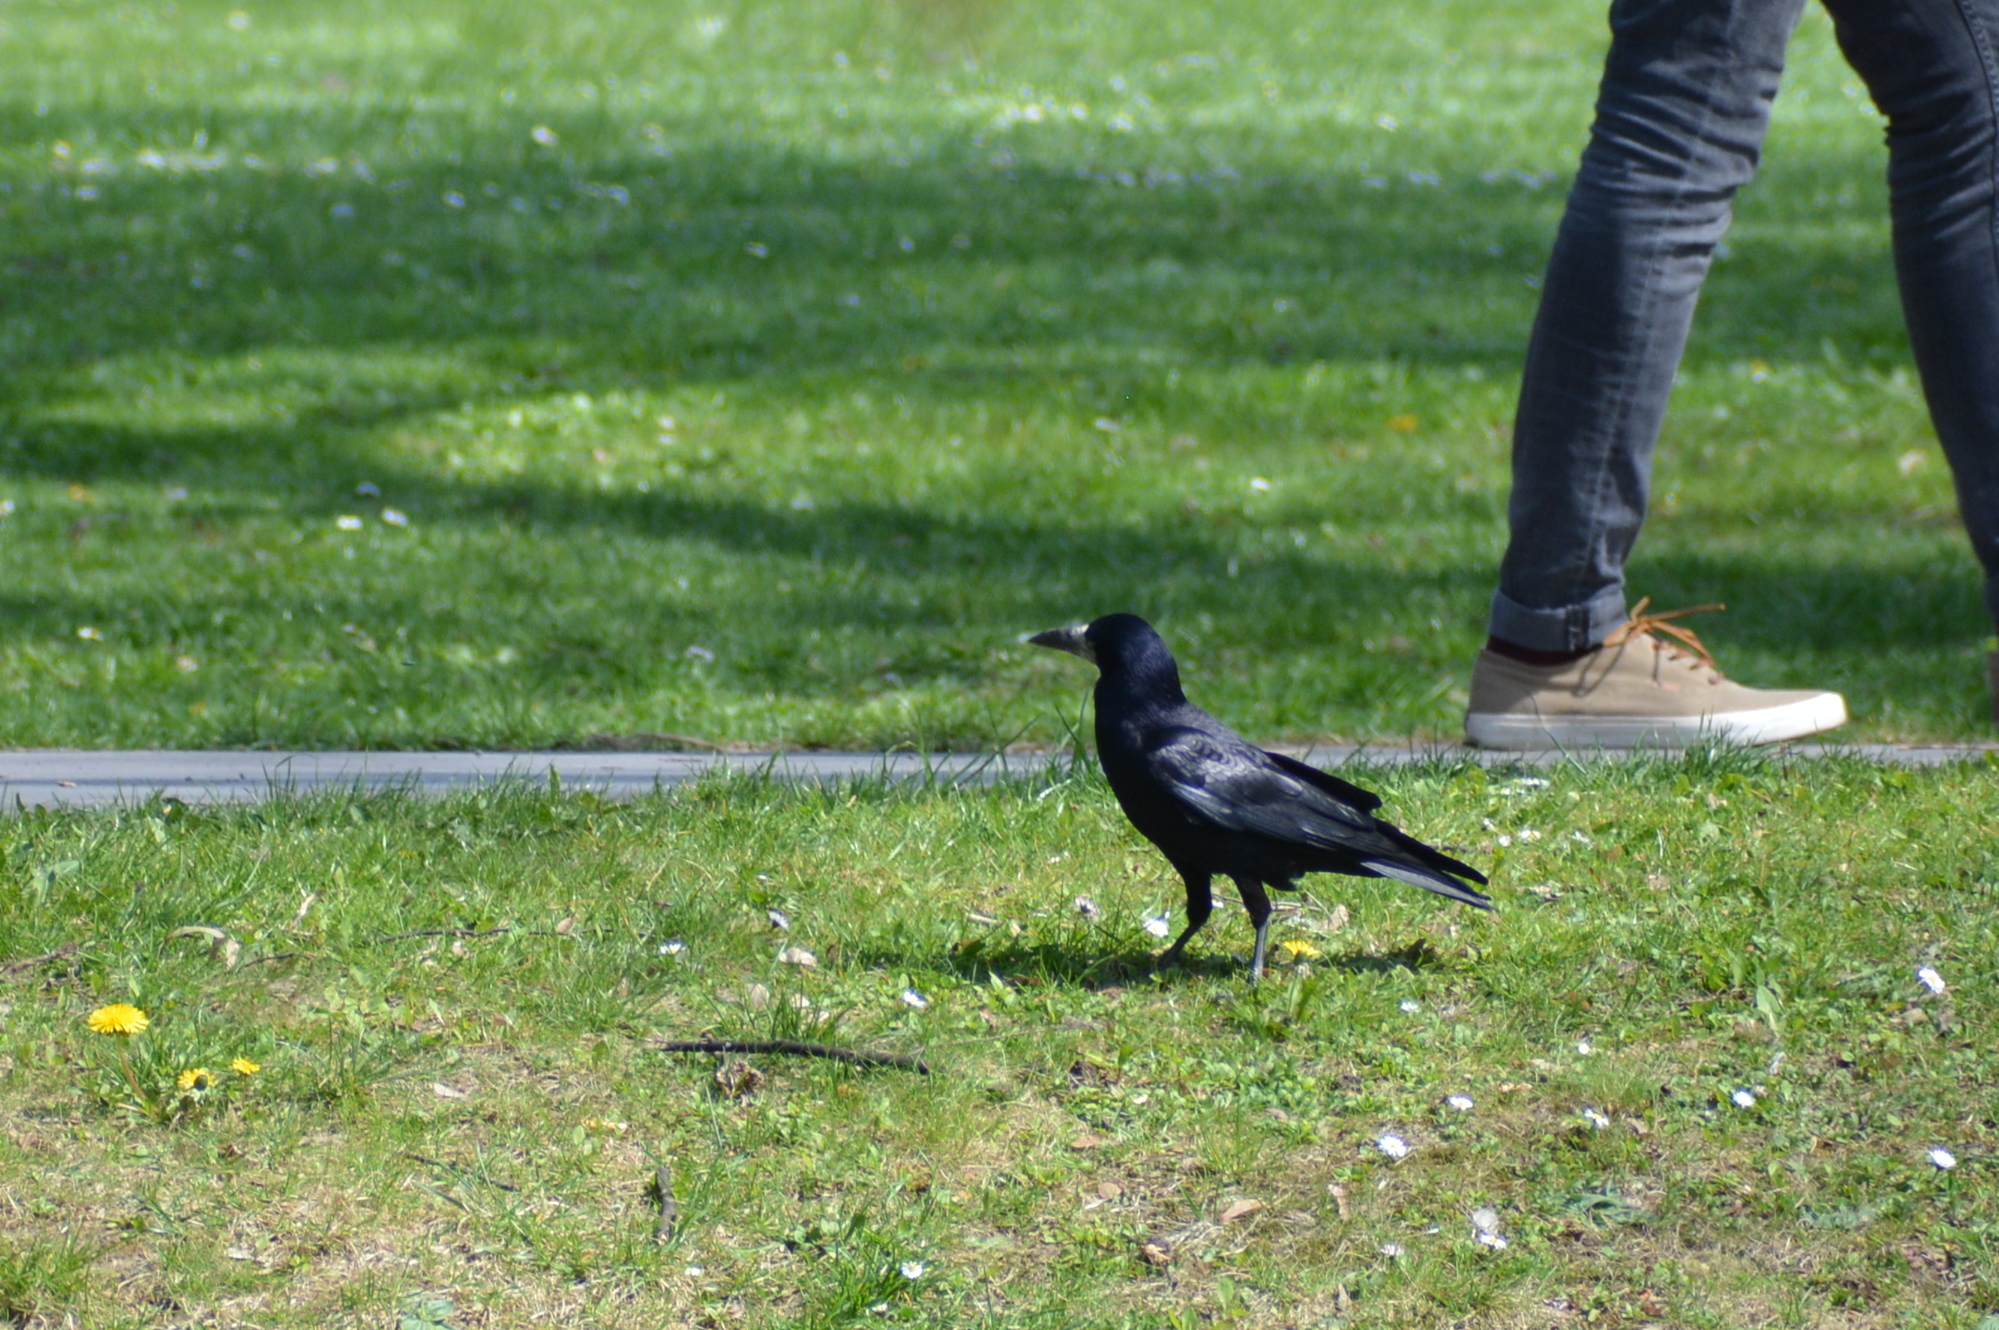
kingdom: Animalia
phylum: Chordata
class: Aves
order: Passeriformes
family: Corvidae
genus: Corvus
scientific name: Corvus frugilegus
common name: Rook
